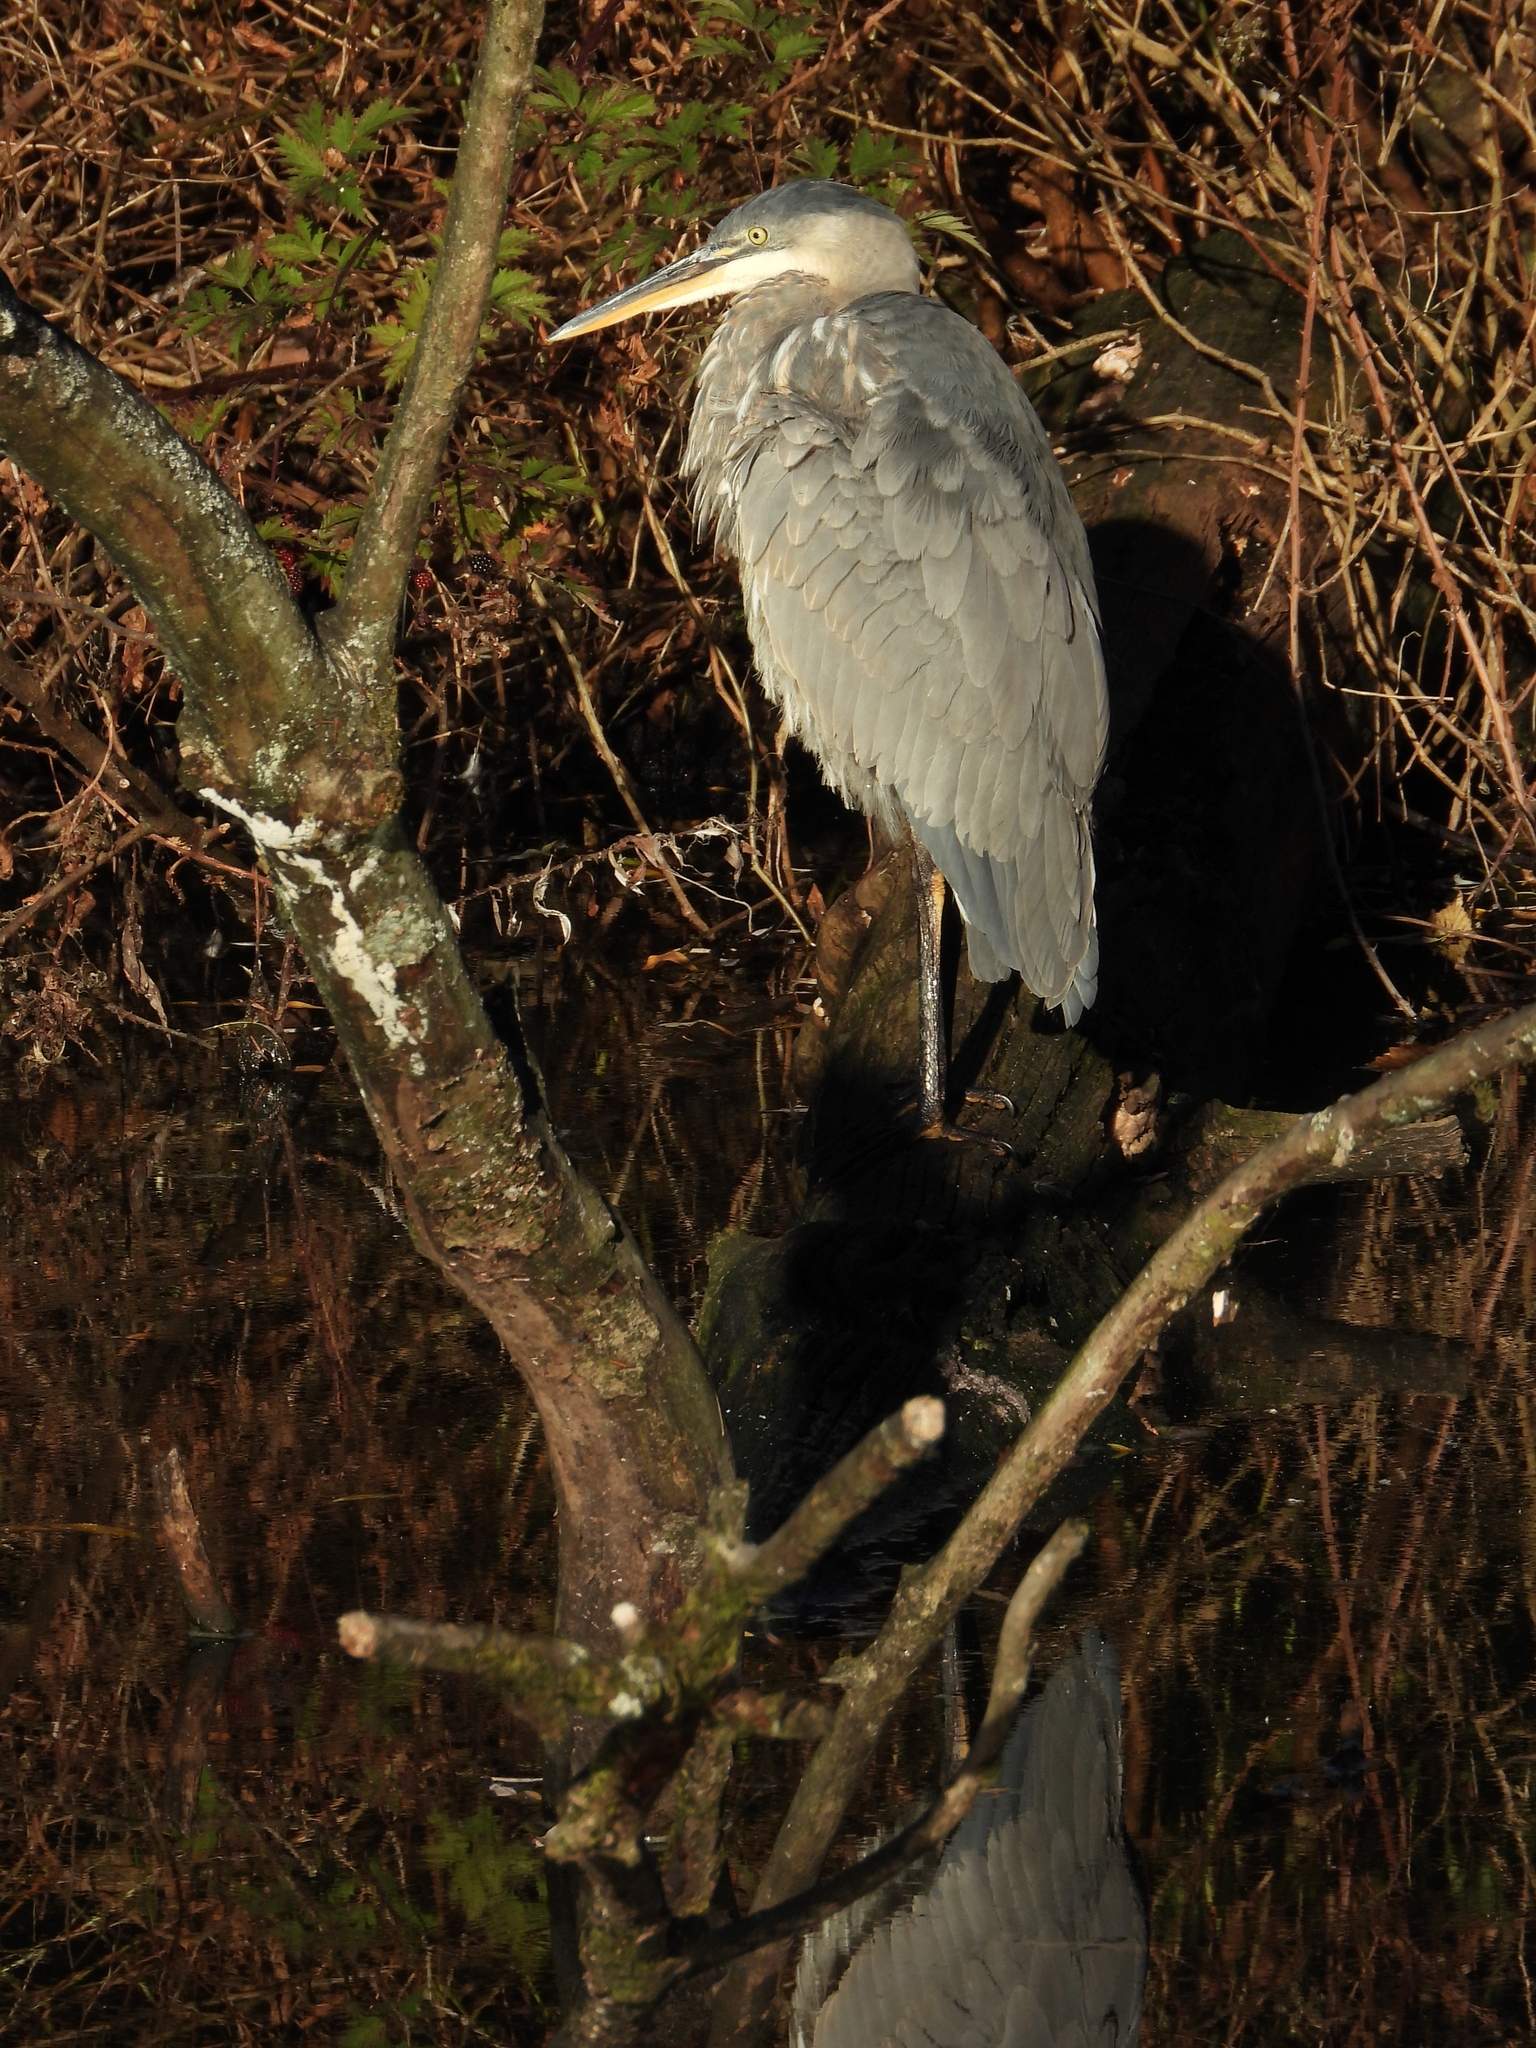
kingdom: Animalia
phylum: Chordata
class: Aves
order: Pelecaniformes
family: Ardeidae
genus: Ardea
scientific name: Ardea herodias
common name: Great blue heron
